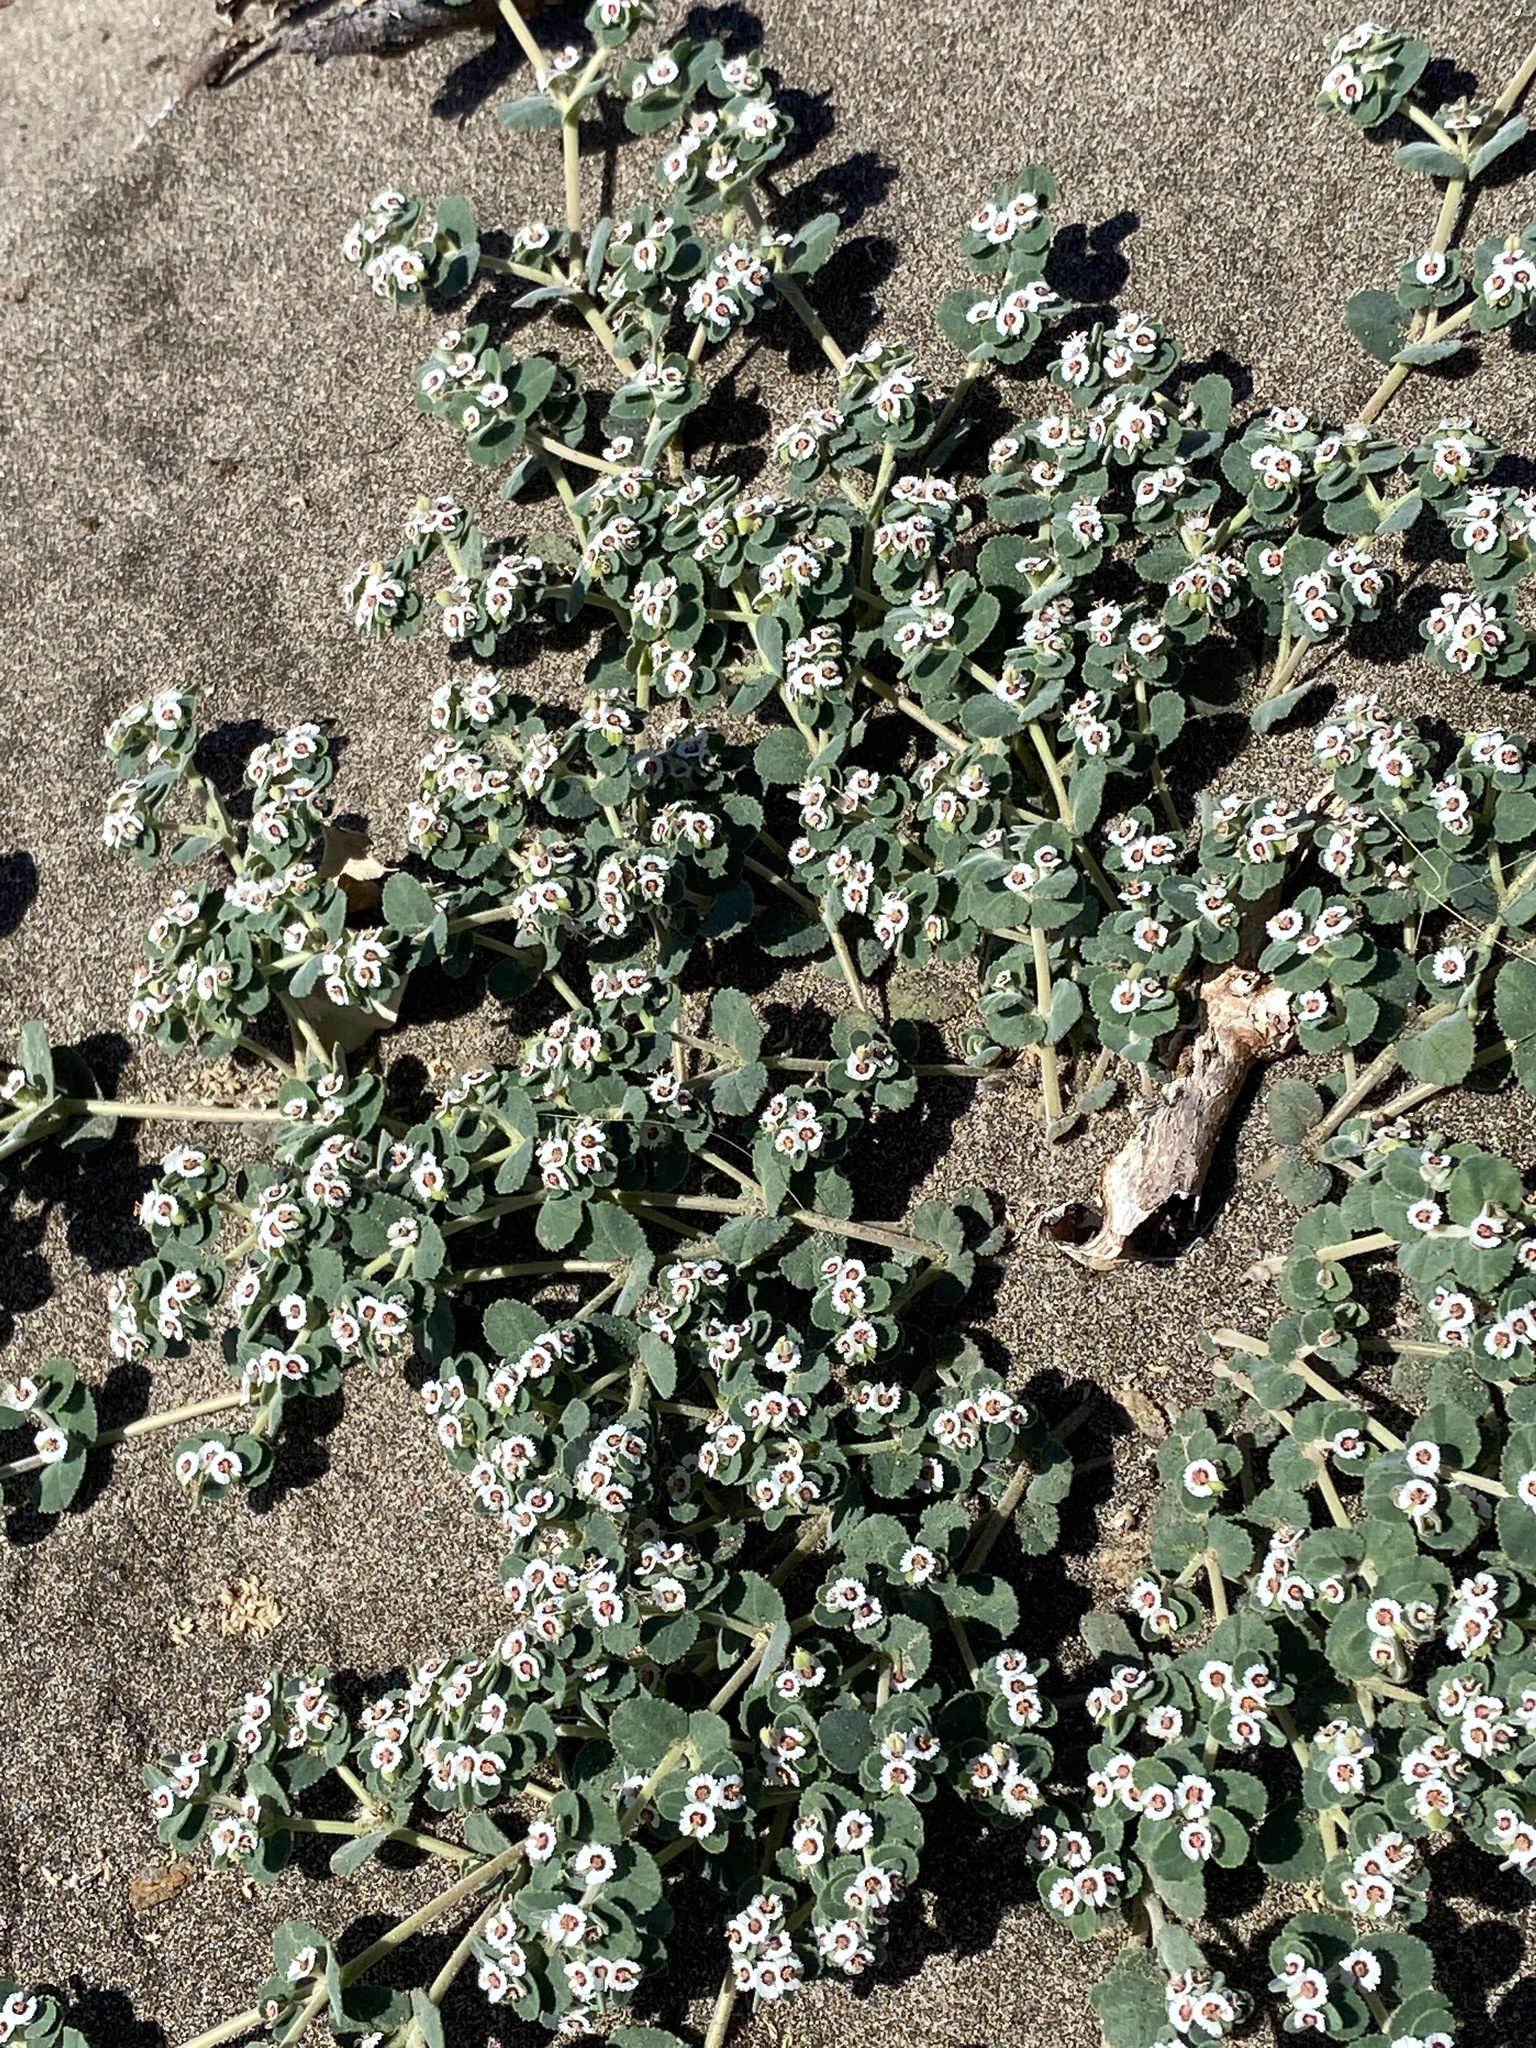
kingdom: Plantae
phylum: Tracheophyta
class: Magnoliopsida
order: Malpighiales
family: Euphorbiaceae
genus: Euphorbia
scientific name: Euphorbia leucophylla
